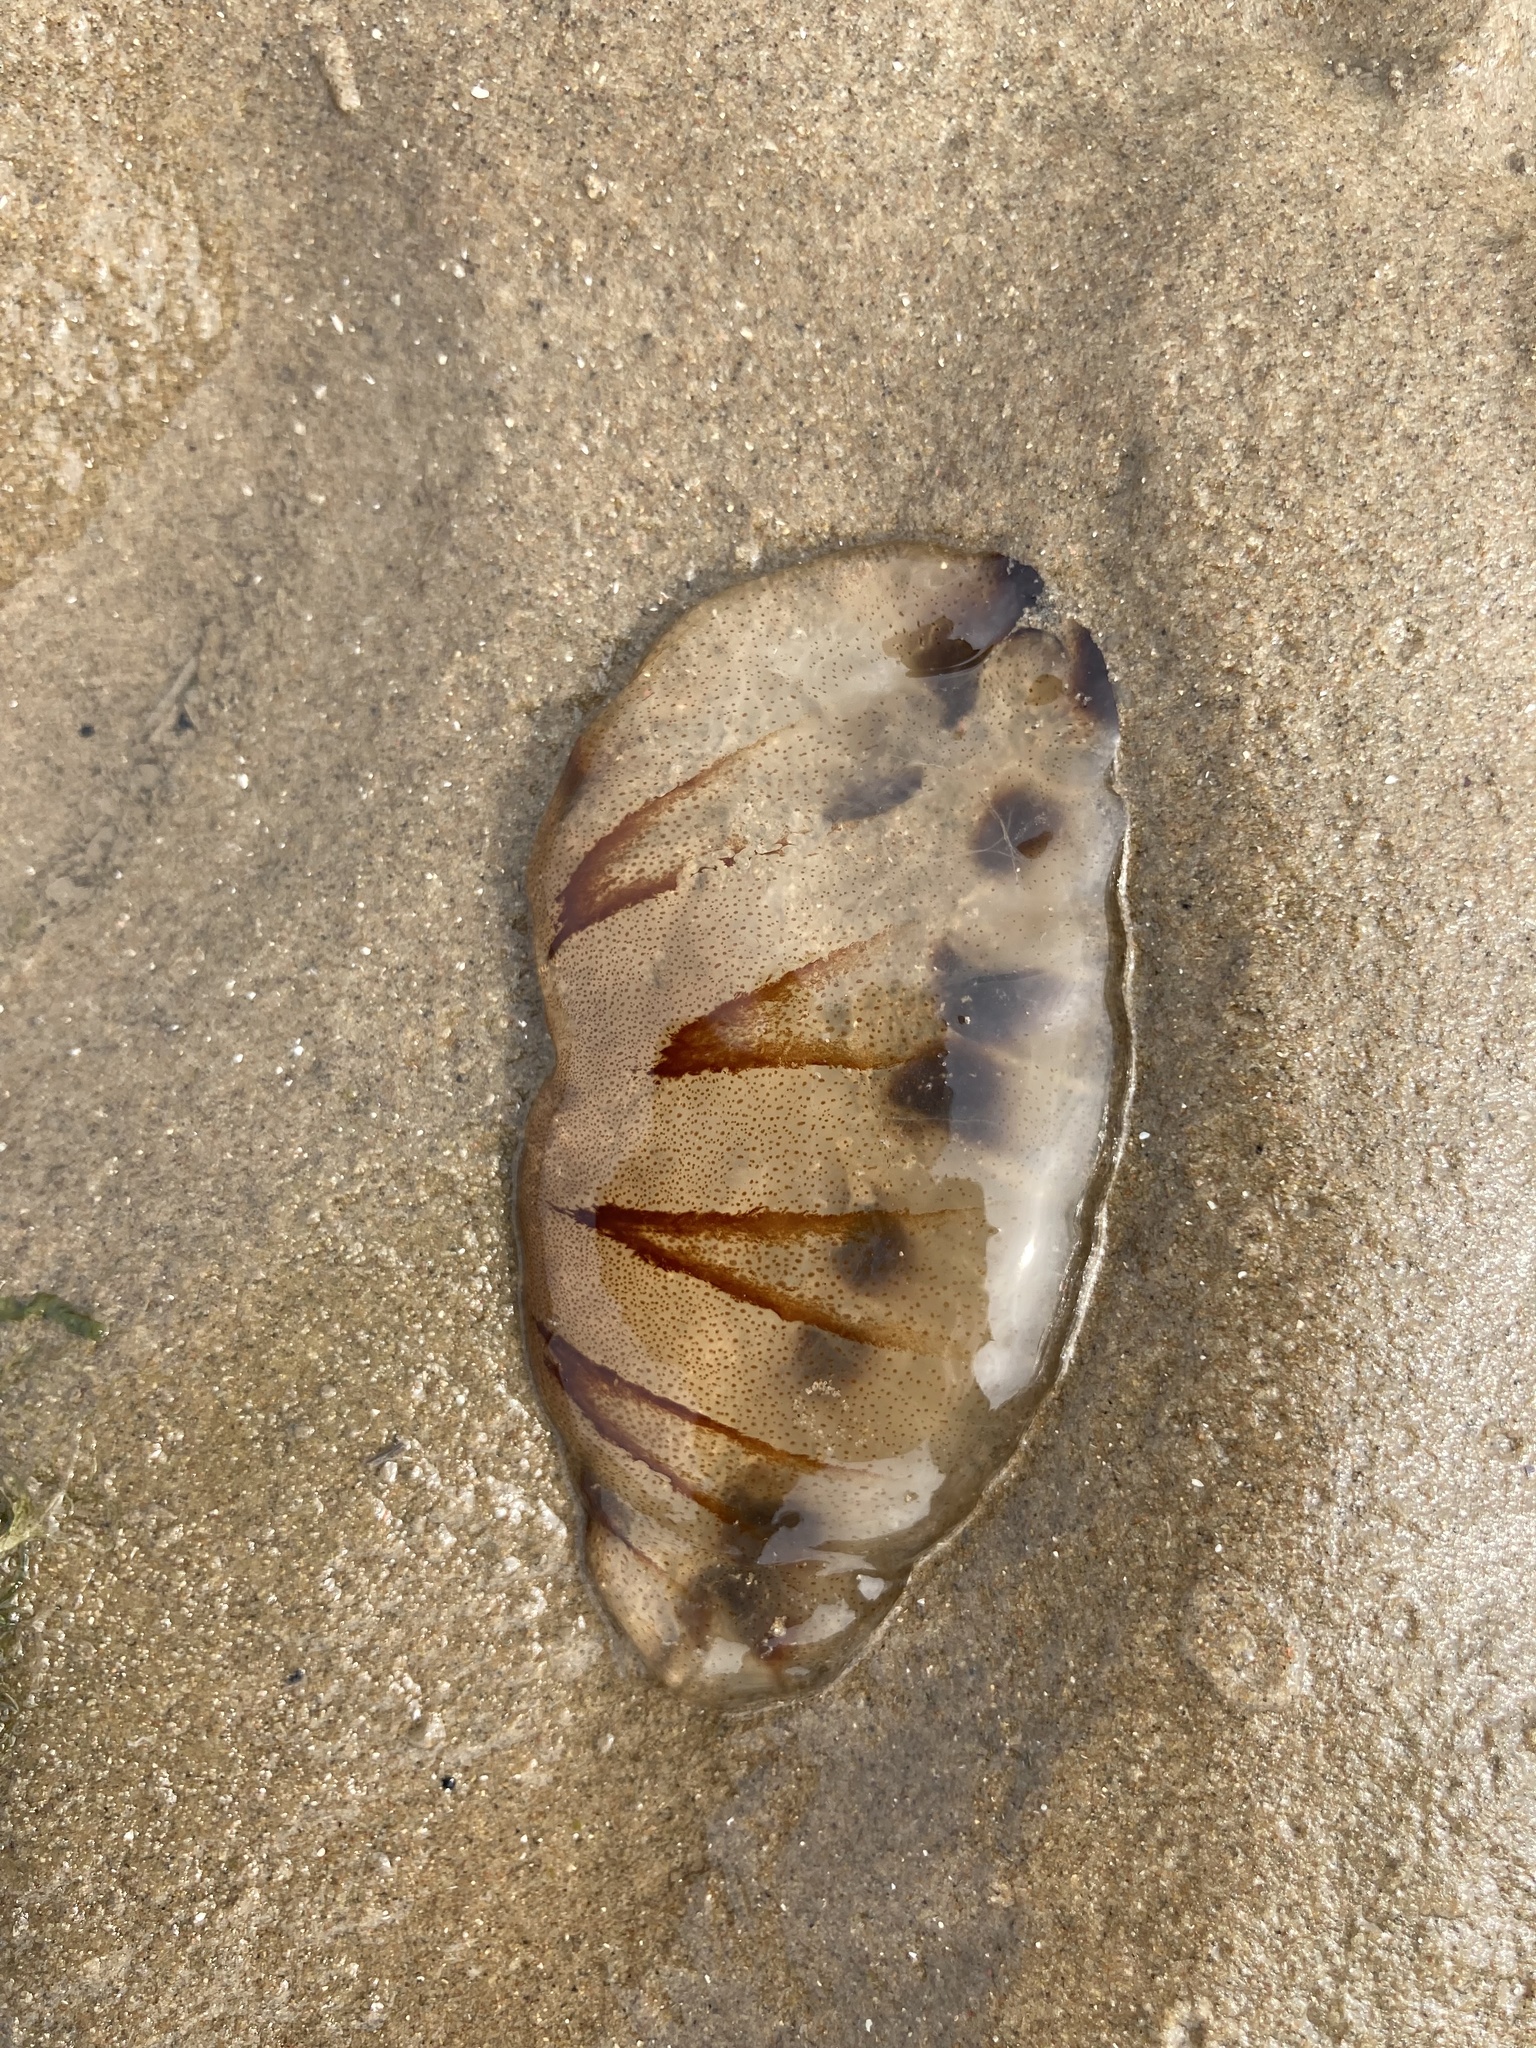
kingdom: Animalia
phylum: Cnidaria
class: Scyphozoa
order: Semaeostomeae
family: Pelagiidae
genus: Chrysaora
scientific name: Chrysaora hysoscella
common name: Compass jellyfish
